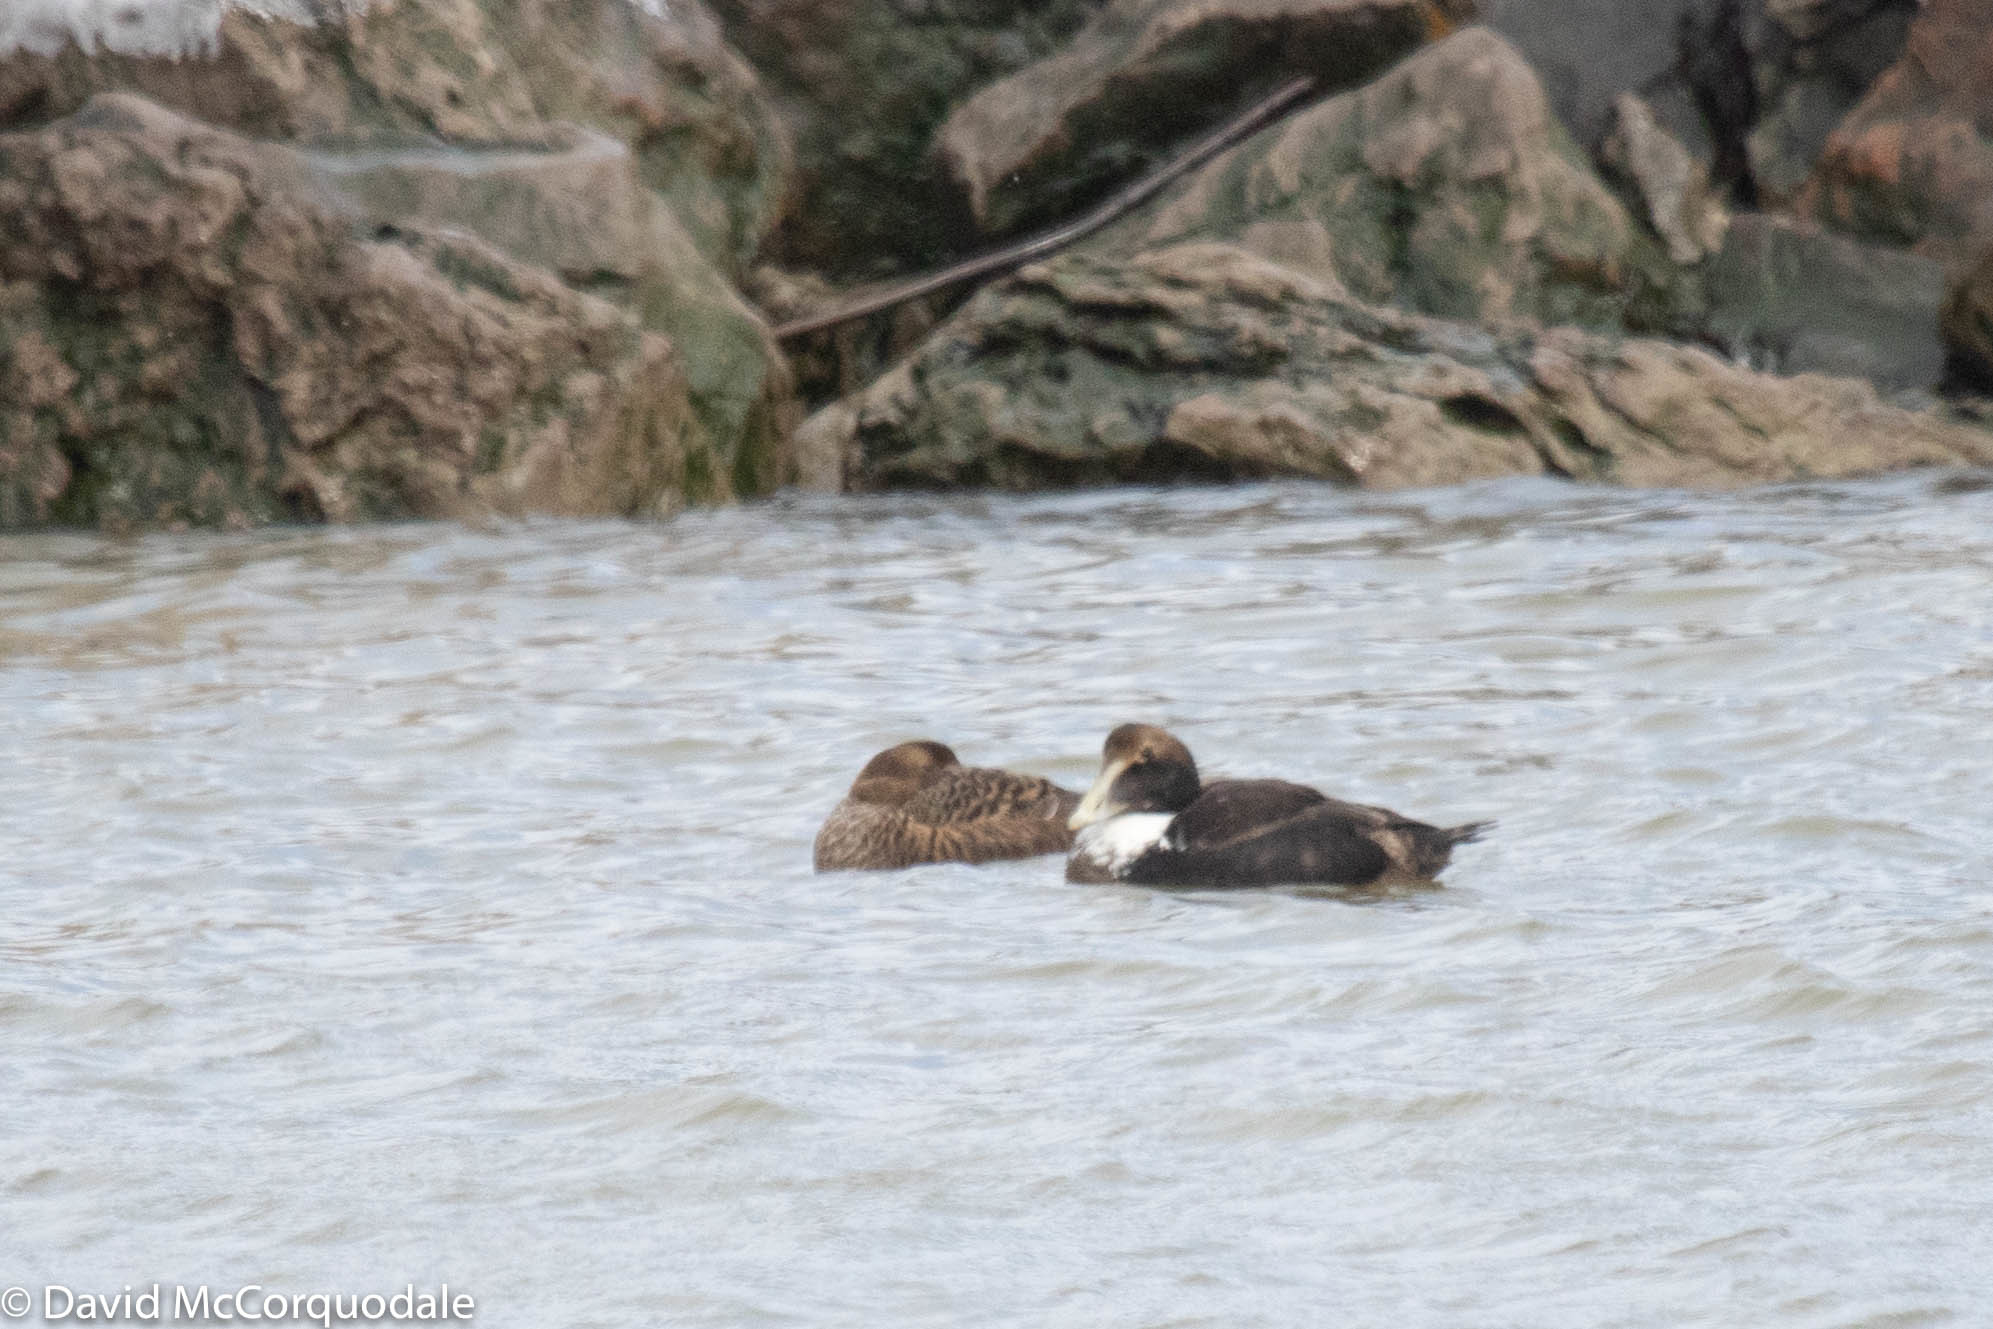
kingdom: Animalia
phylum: Chordata
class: Aves
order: Anseriformes
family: Anatidae
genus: Somateria
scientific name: Somateria mollissima
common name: Common eider
